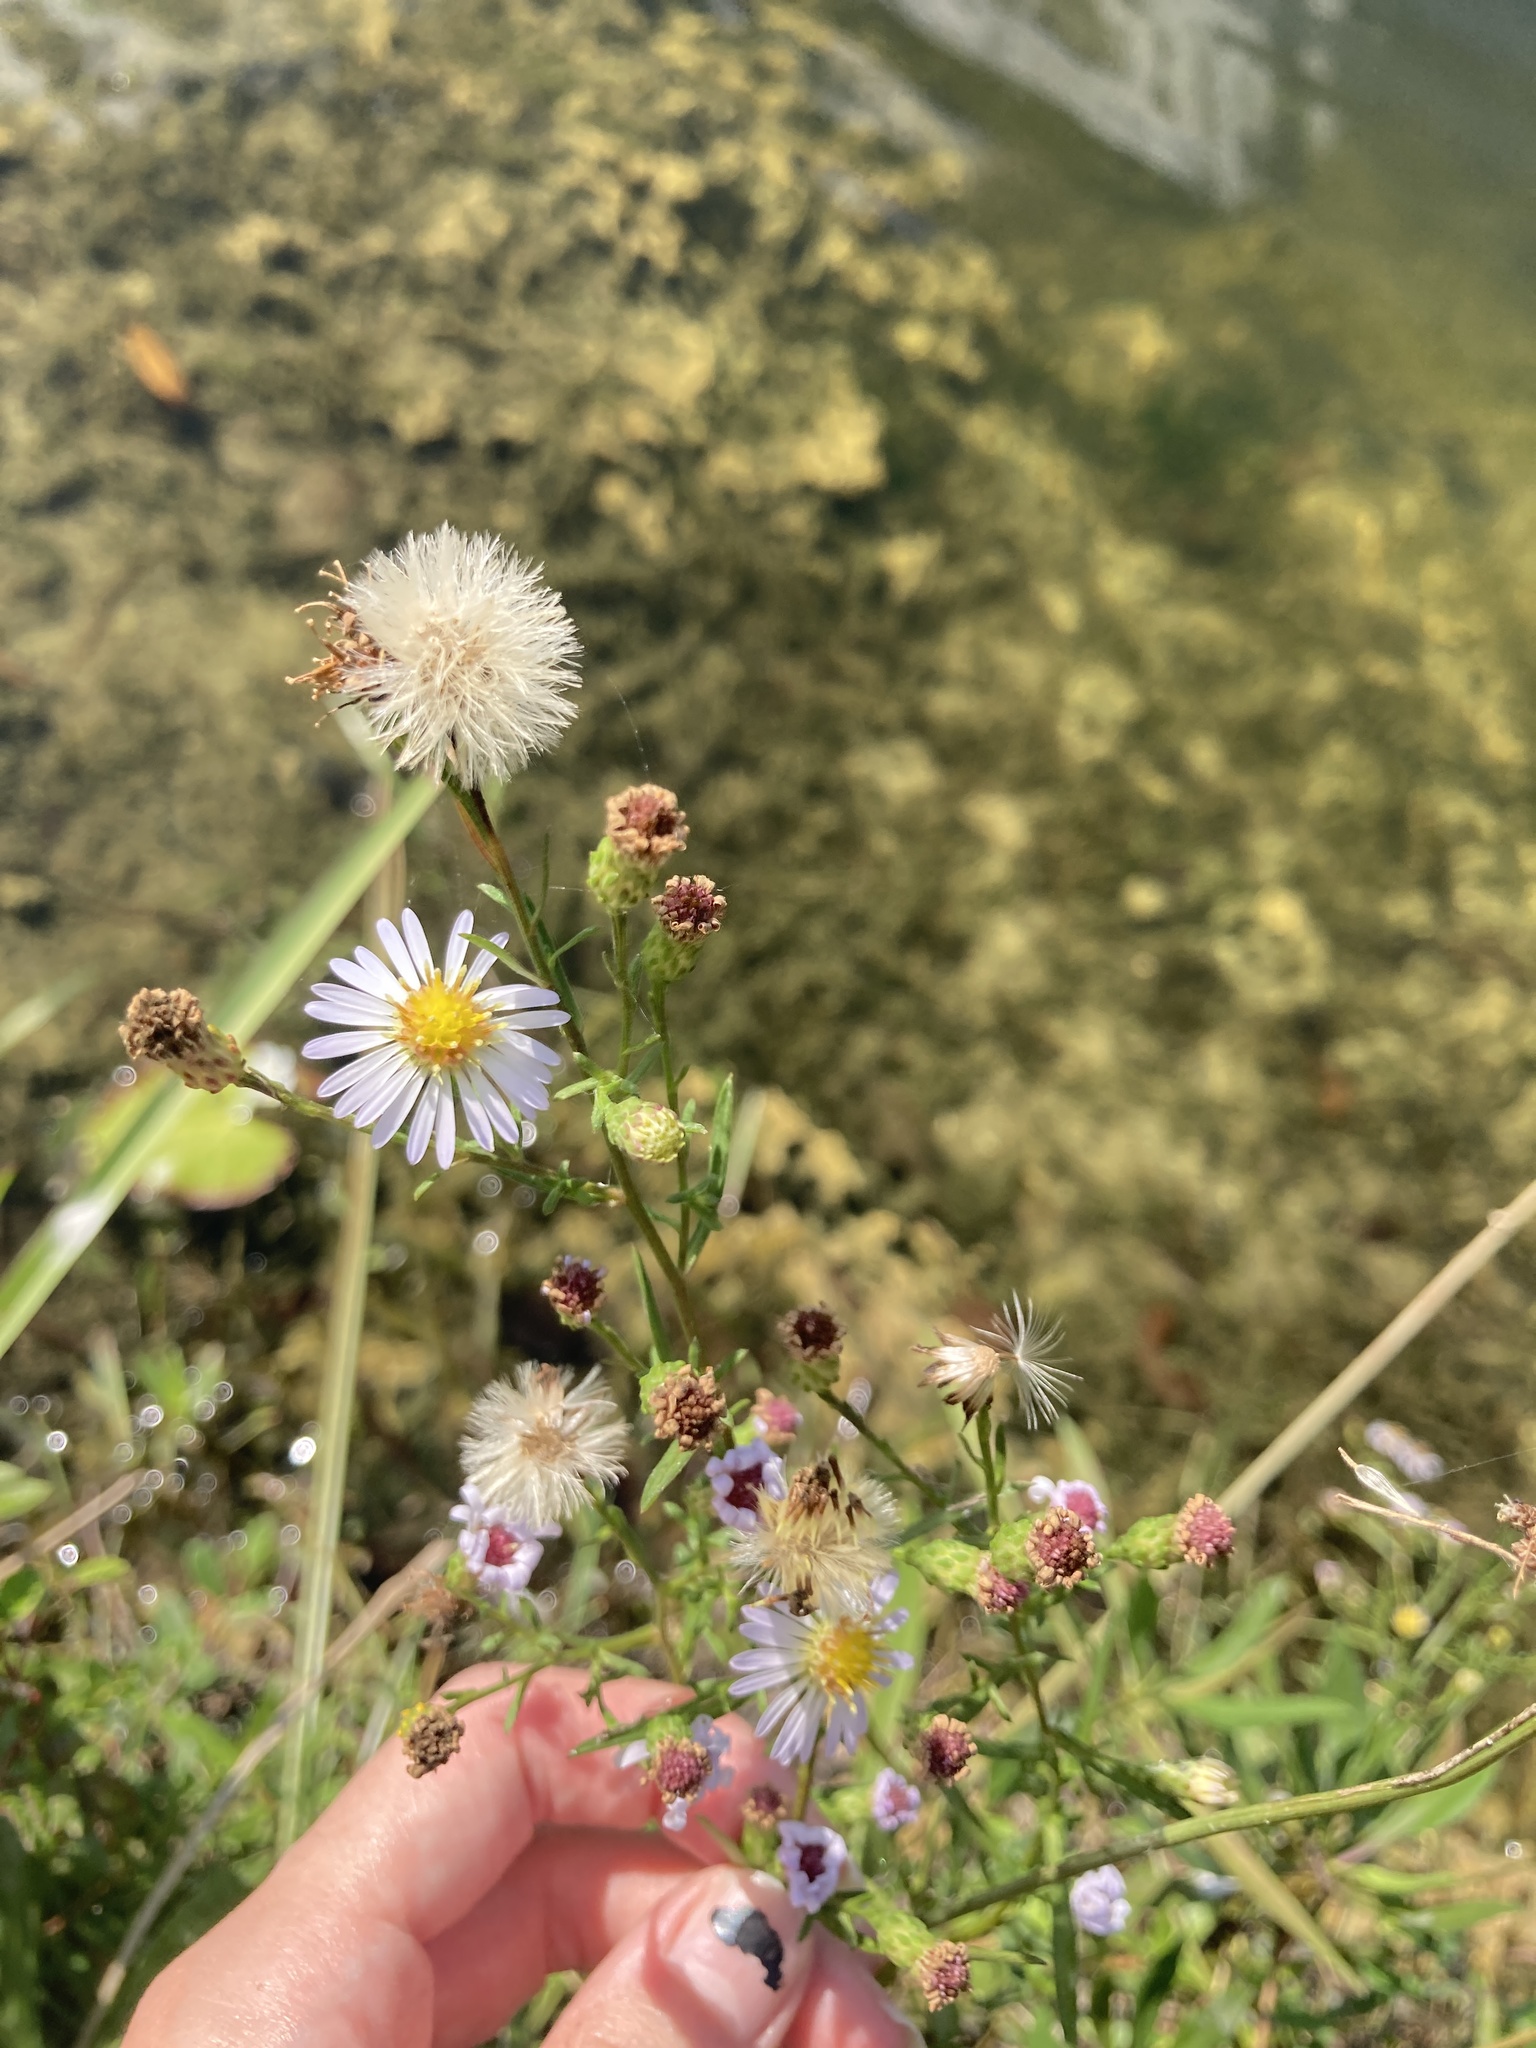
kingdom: Plantae
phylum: Tracheophyta
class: Magnoliopsida
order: Asterales
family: Asteraceae
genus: Symphyotrichum
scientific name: Symphyotrichum simmondsii
